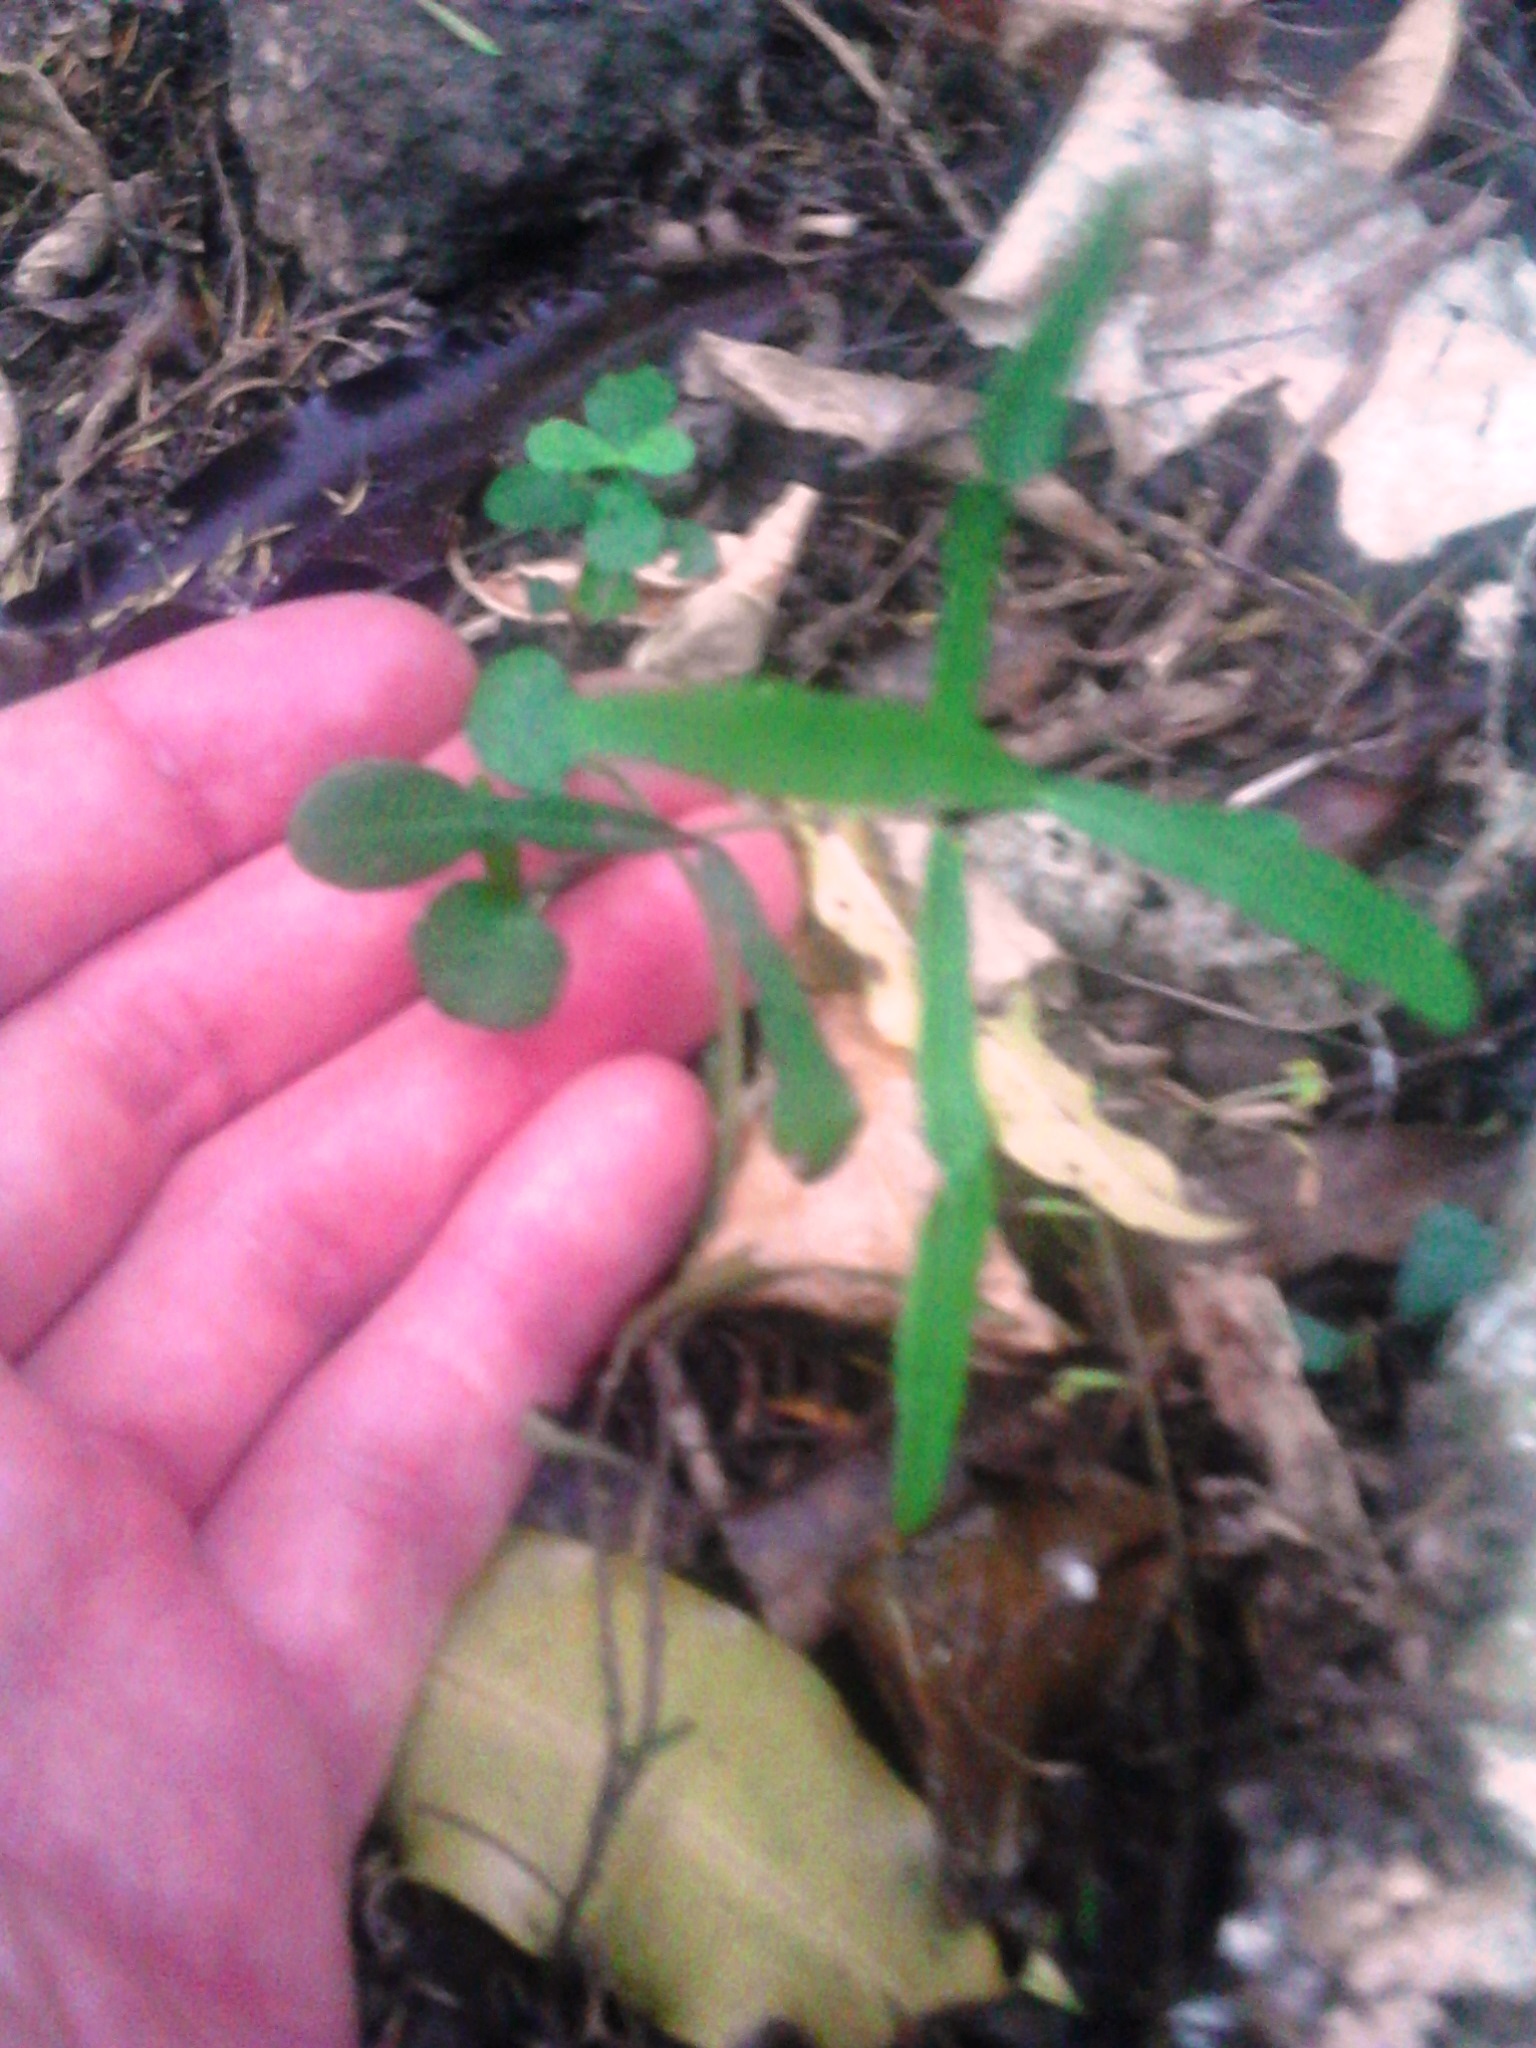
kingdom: Plantae
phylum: Tracheophyta
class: Magnoliopsida
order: Gentianales
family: Apocynaceae
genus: Parsonsia
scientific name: Parsonsia heterophylla
